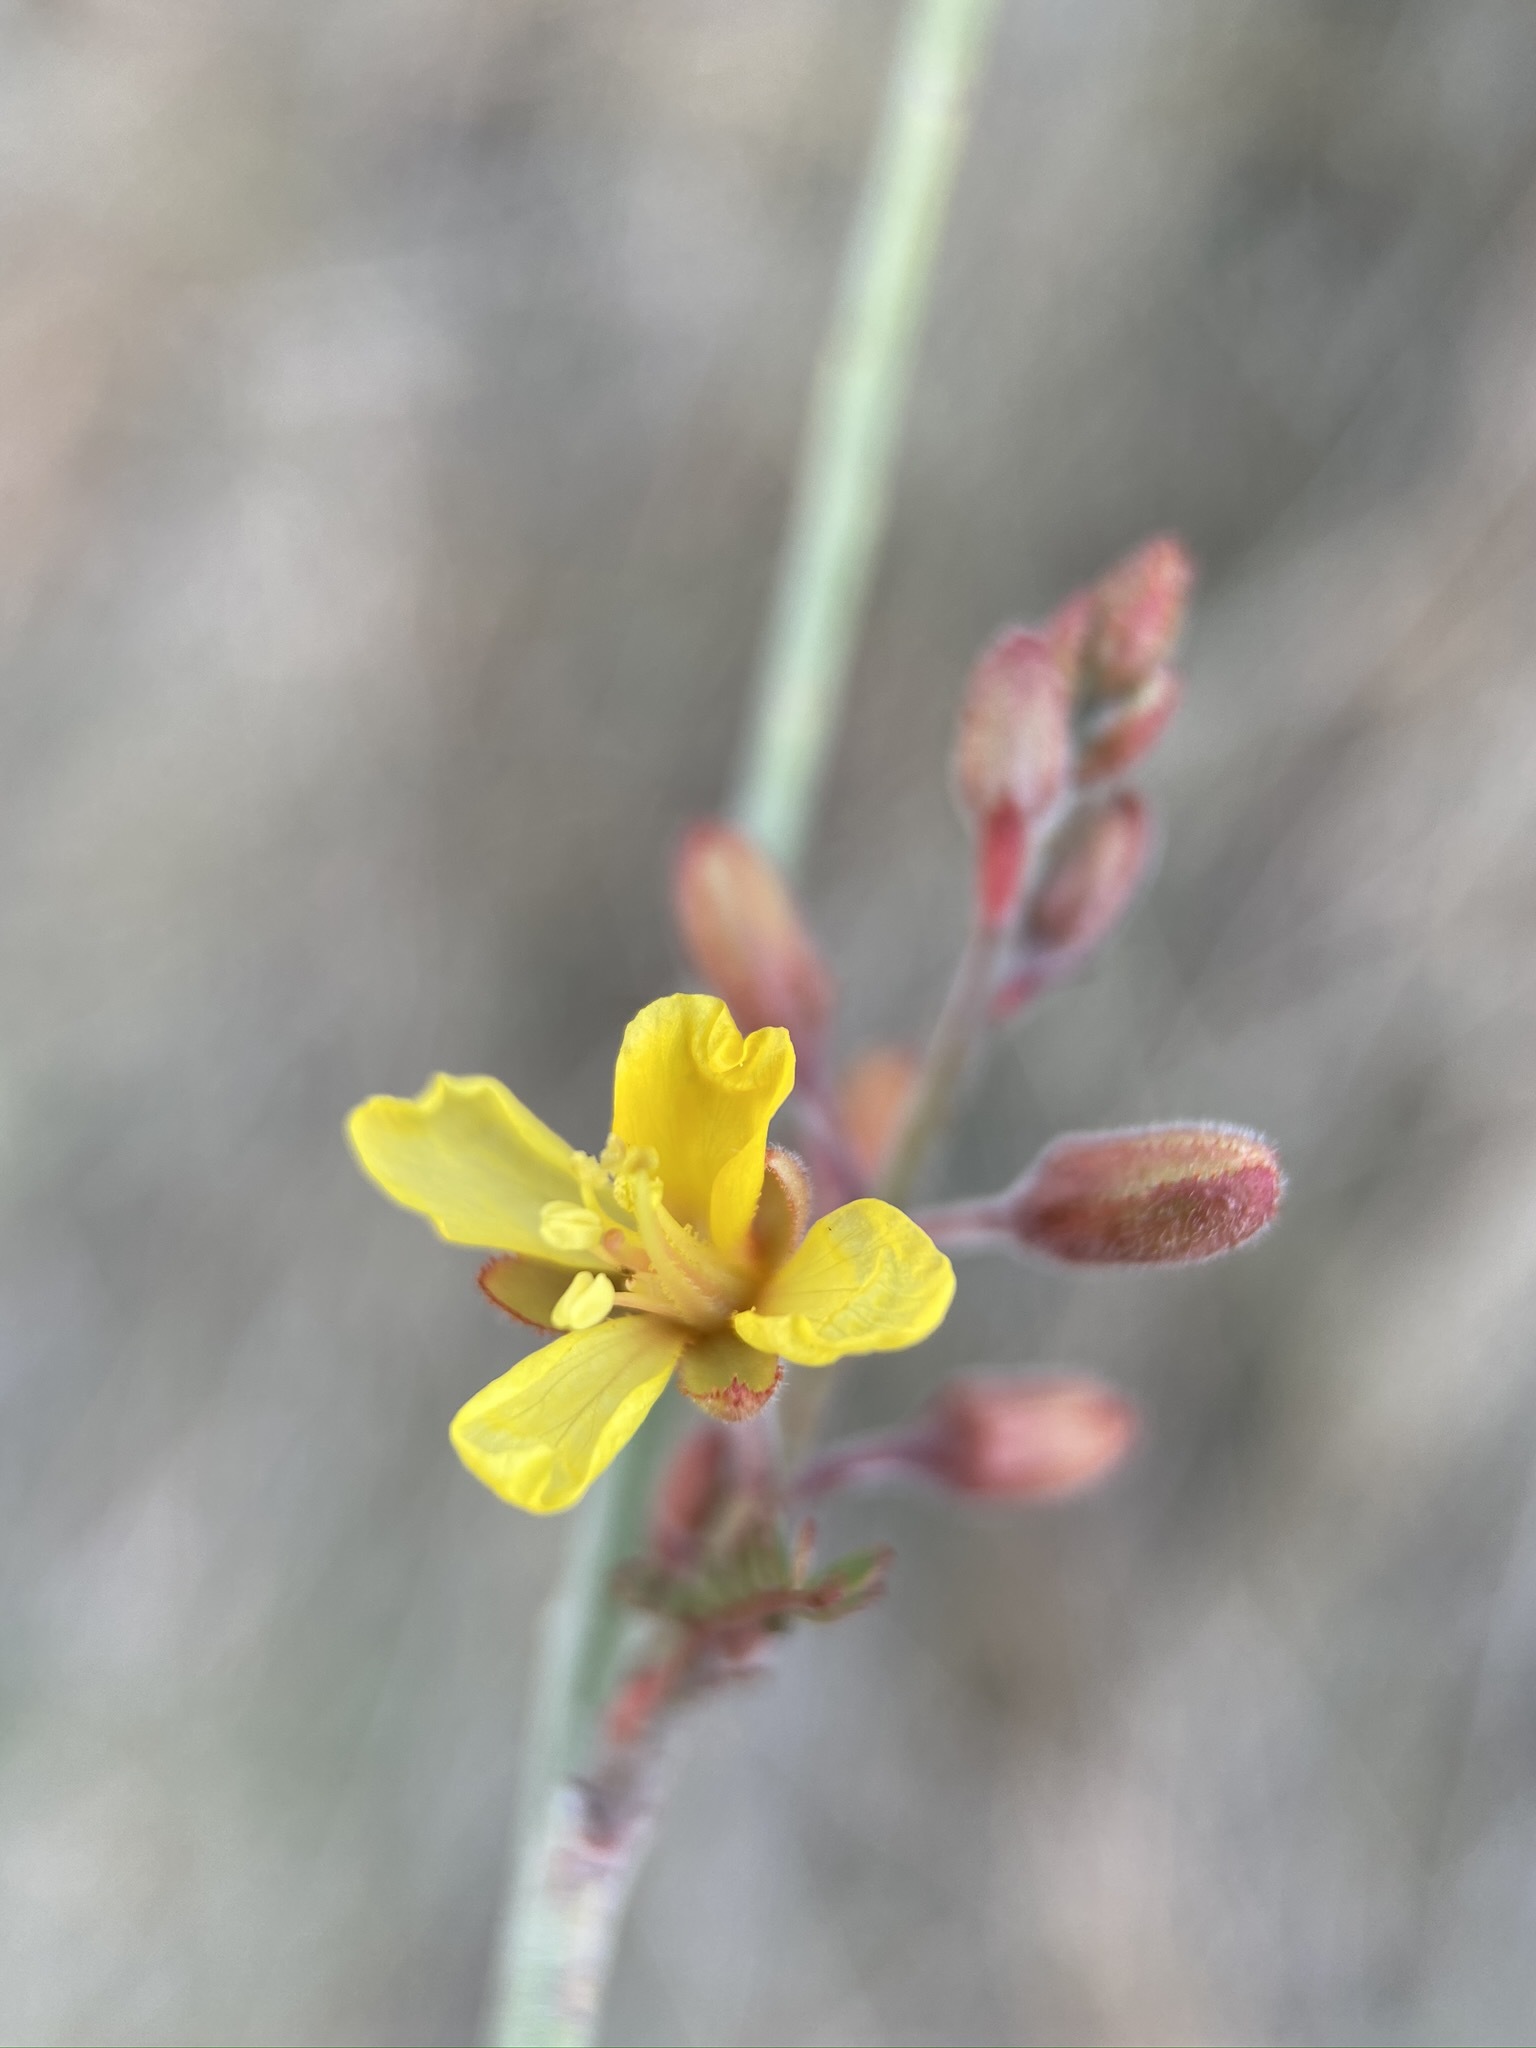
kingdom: Plantae
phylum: Tracheophyta
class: Magnoliopsida
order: Fabales
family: Fabaceae
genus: Hoffmannseggia
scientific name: Hoffmannseggia microphylla
